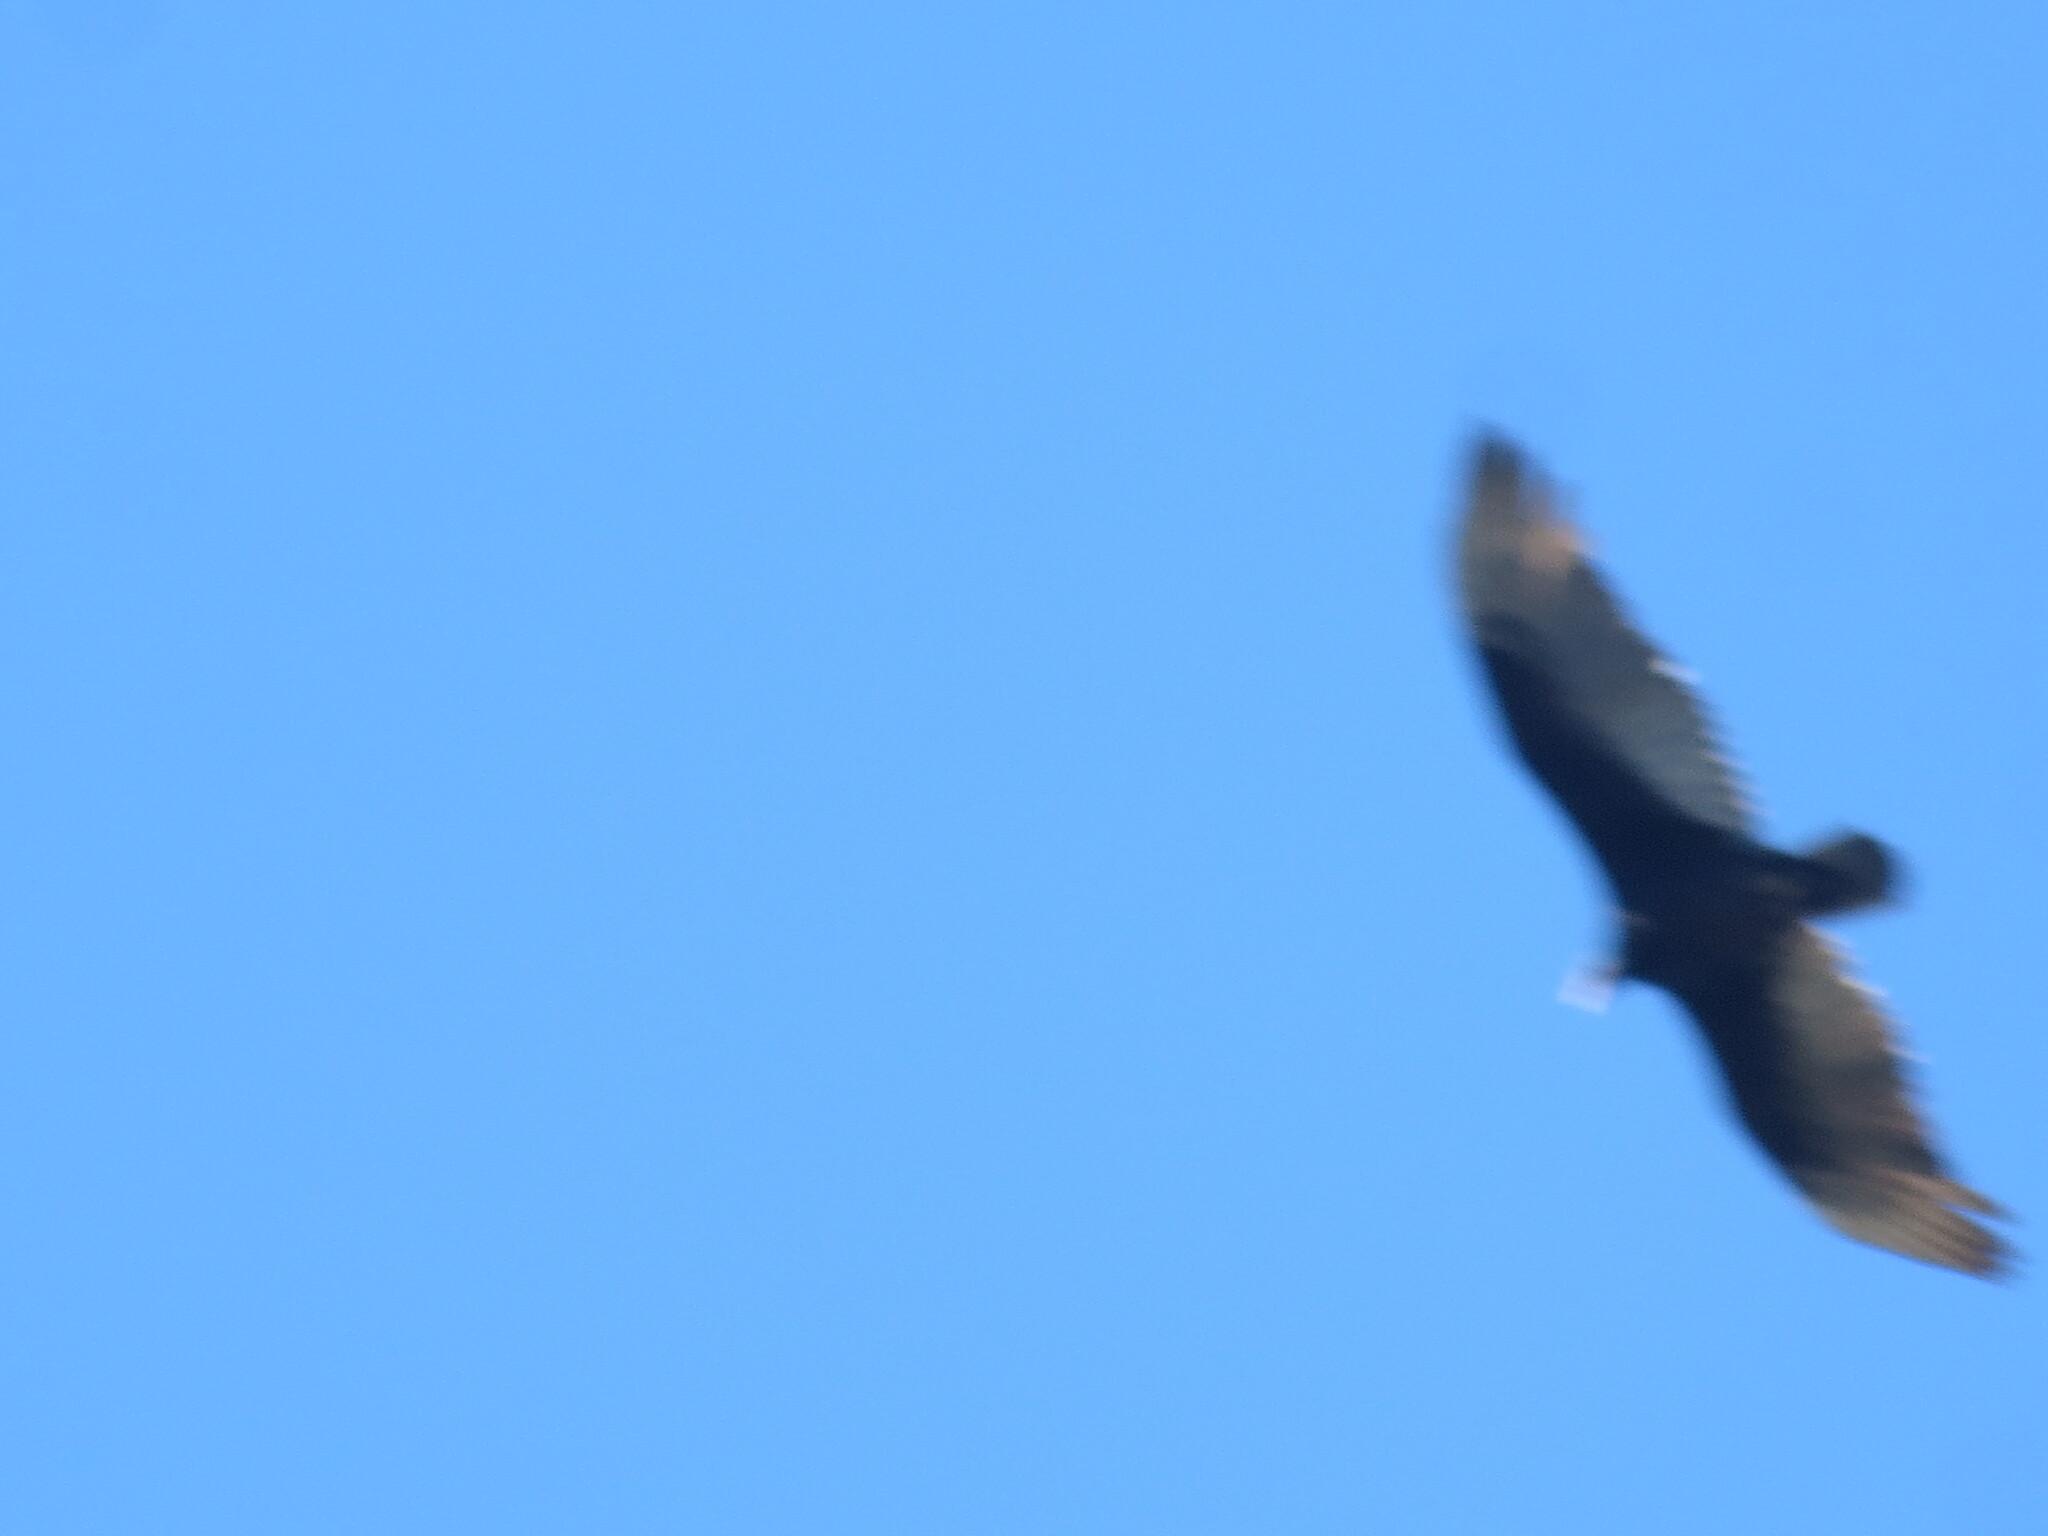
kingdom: Animalia
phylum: Chordata
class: Aves
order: Accipitriformes
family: Cathartidae
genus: Cathartes
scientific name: Cathartes aura
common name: Turkey vulture
